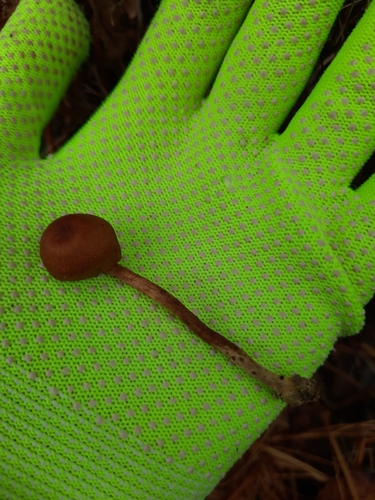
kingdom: Fungi
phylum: Basidiomycota
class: Agaricomycetes
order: Agaricales
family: Cortinariaceae
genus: Cortinarius
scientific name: Cortinarius
